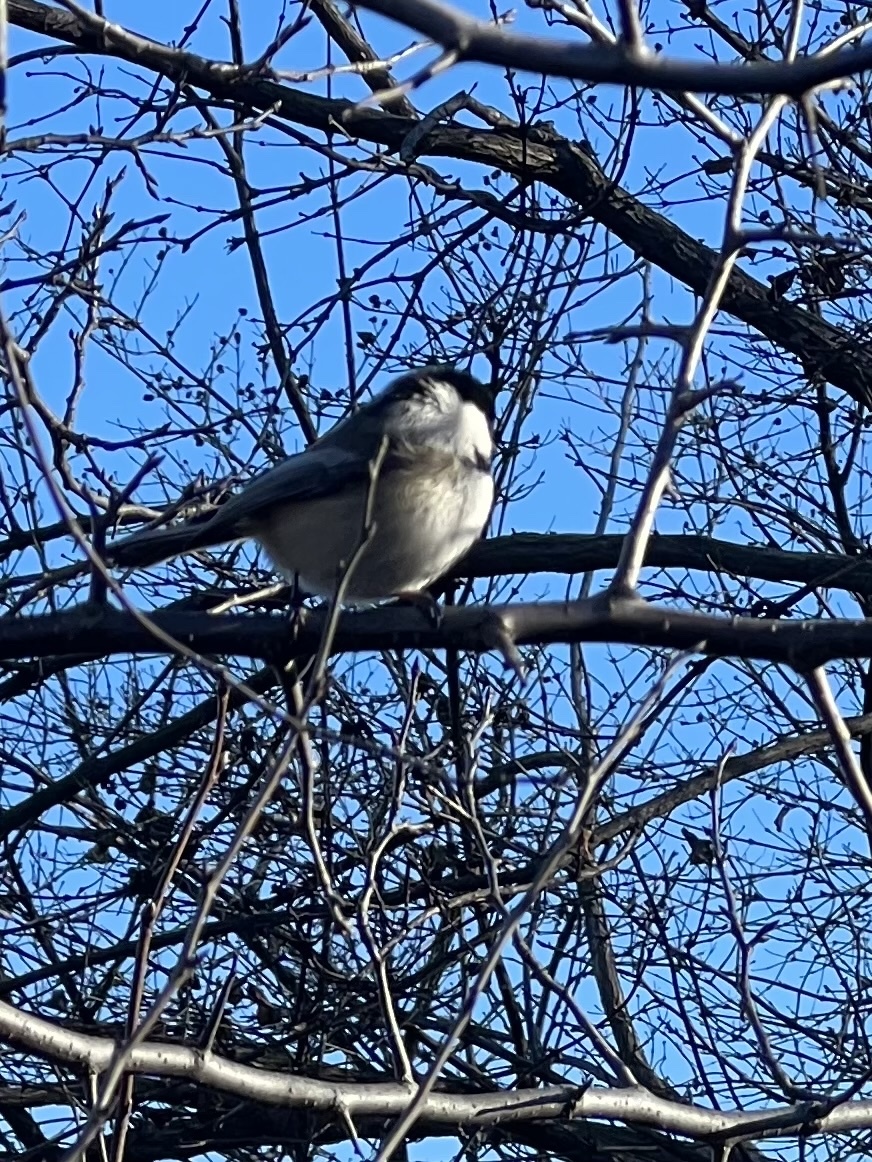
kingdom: Animalia
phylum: Chordata
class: Aves
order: Passeriformes
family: Paridae
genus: Poecile
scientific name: Poecile atricapillus
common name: Black-capped chickadee
